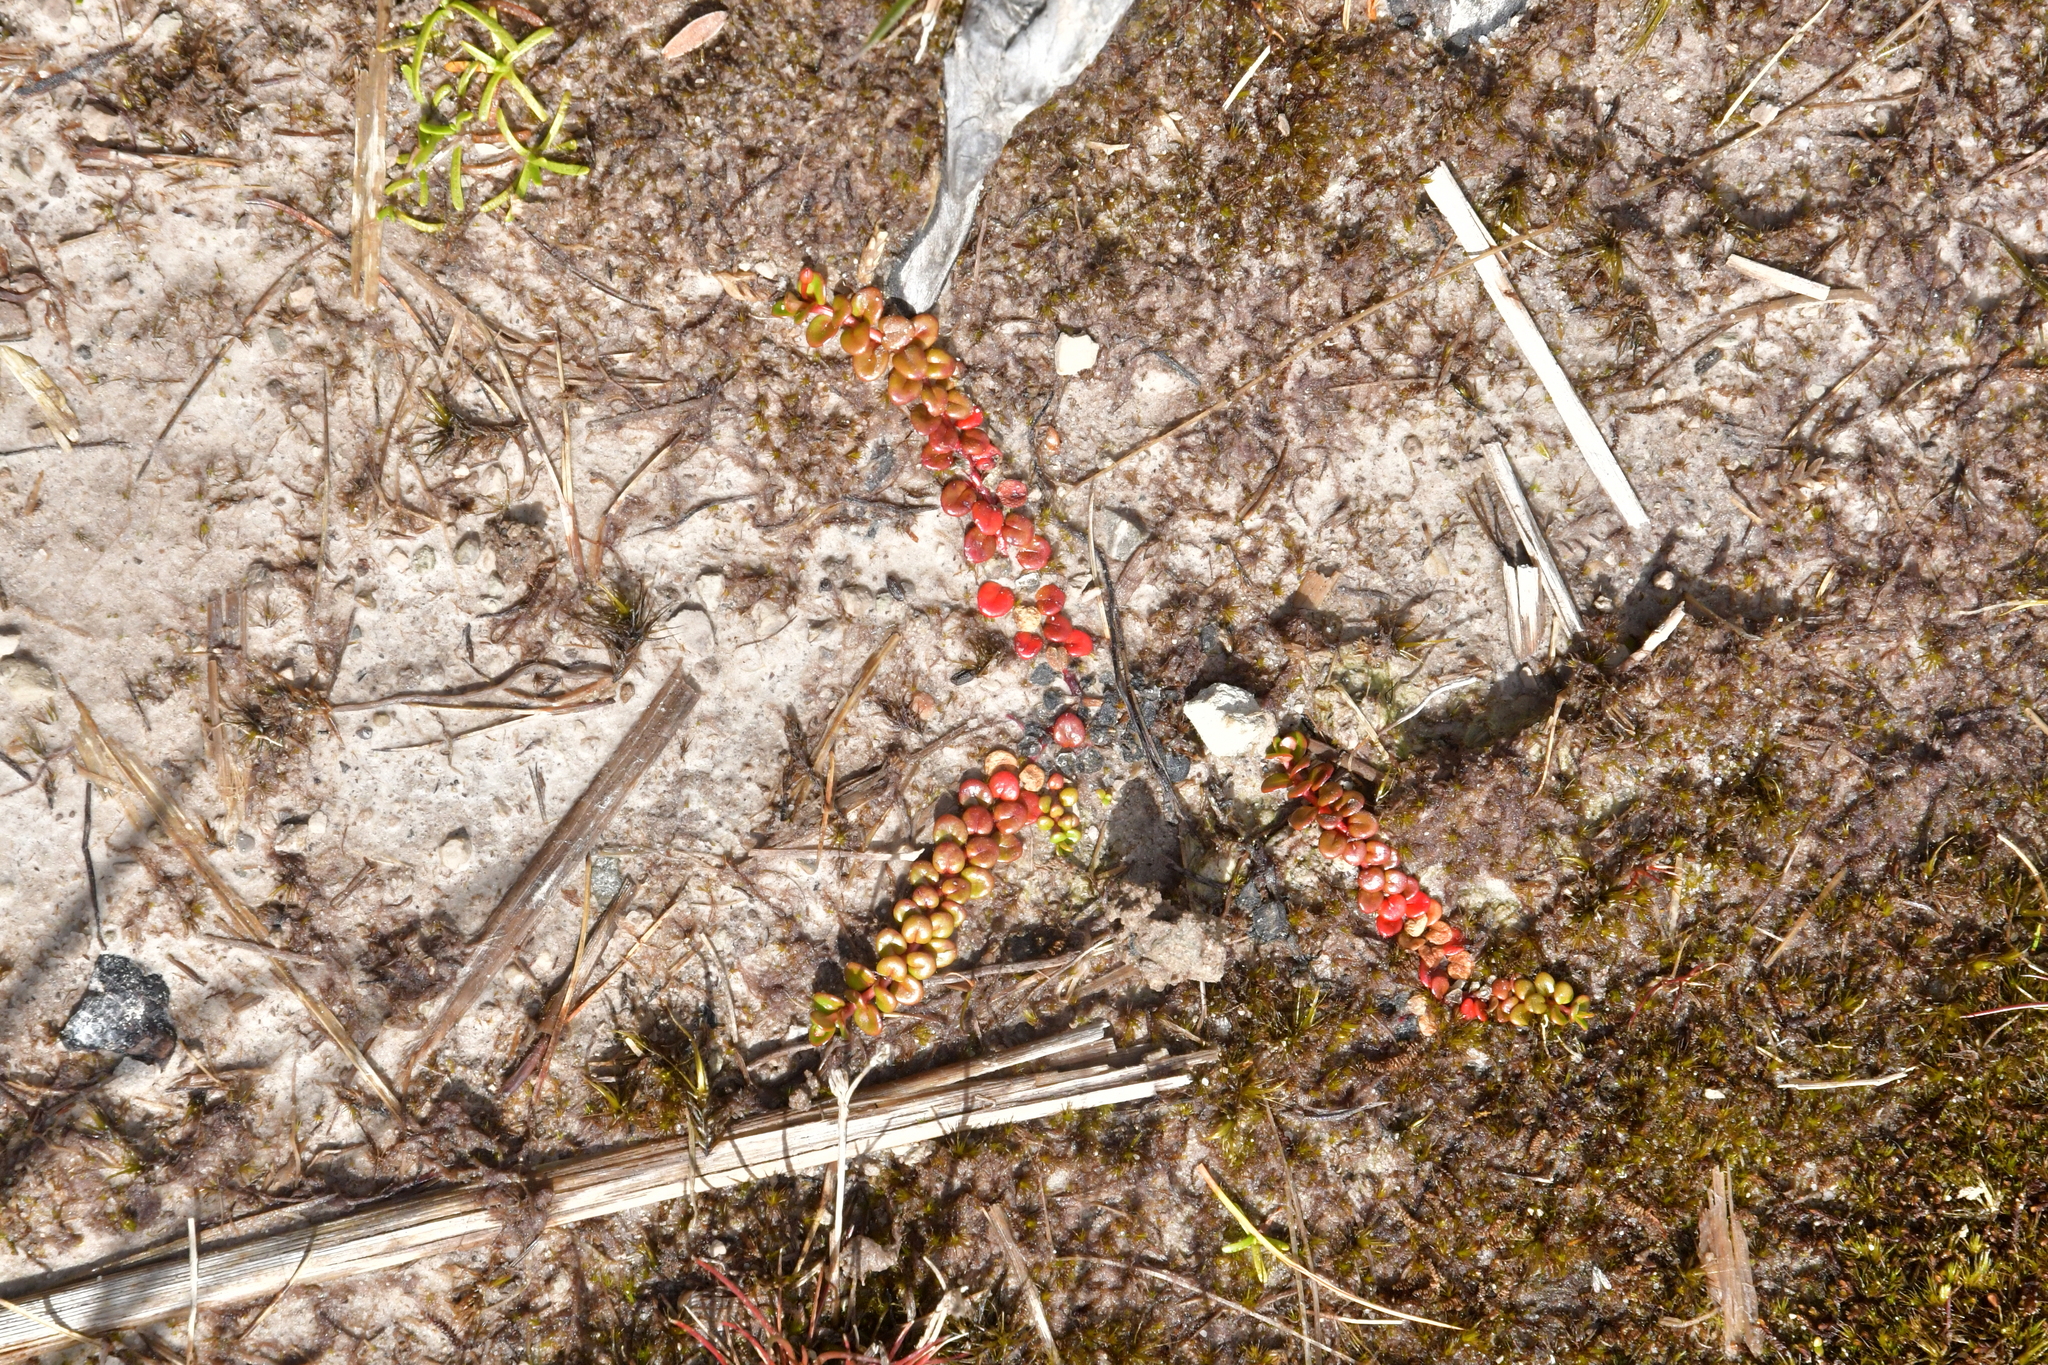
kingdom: Plantae
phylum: Tracheophyta
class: Magnoliopsida
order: Myrtales
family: Onagraceae
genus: Epilobium
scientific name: Epilobium pernitens
